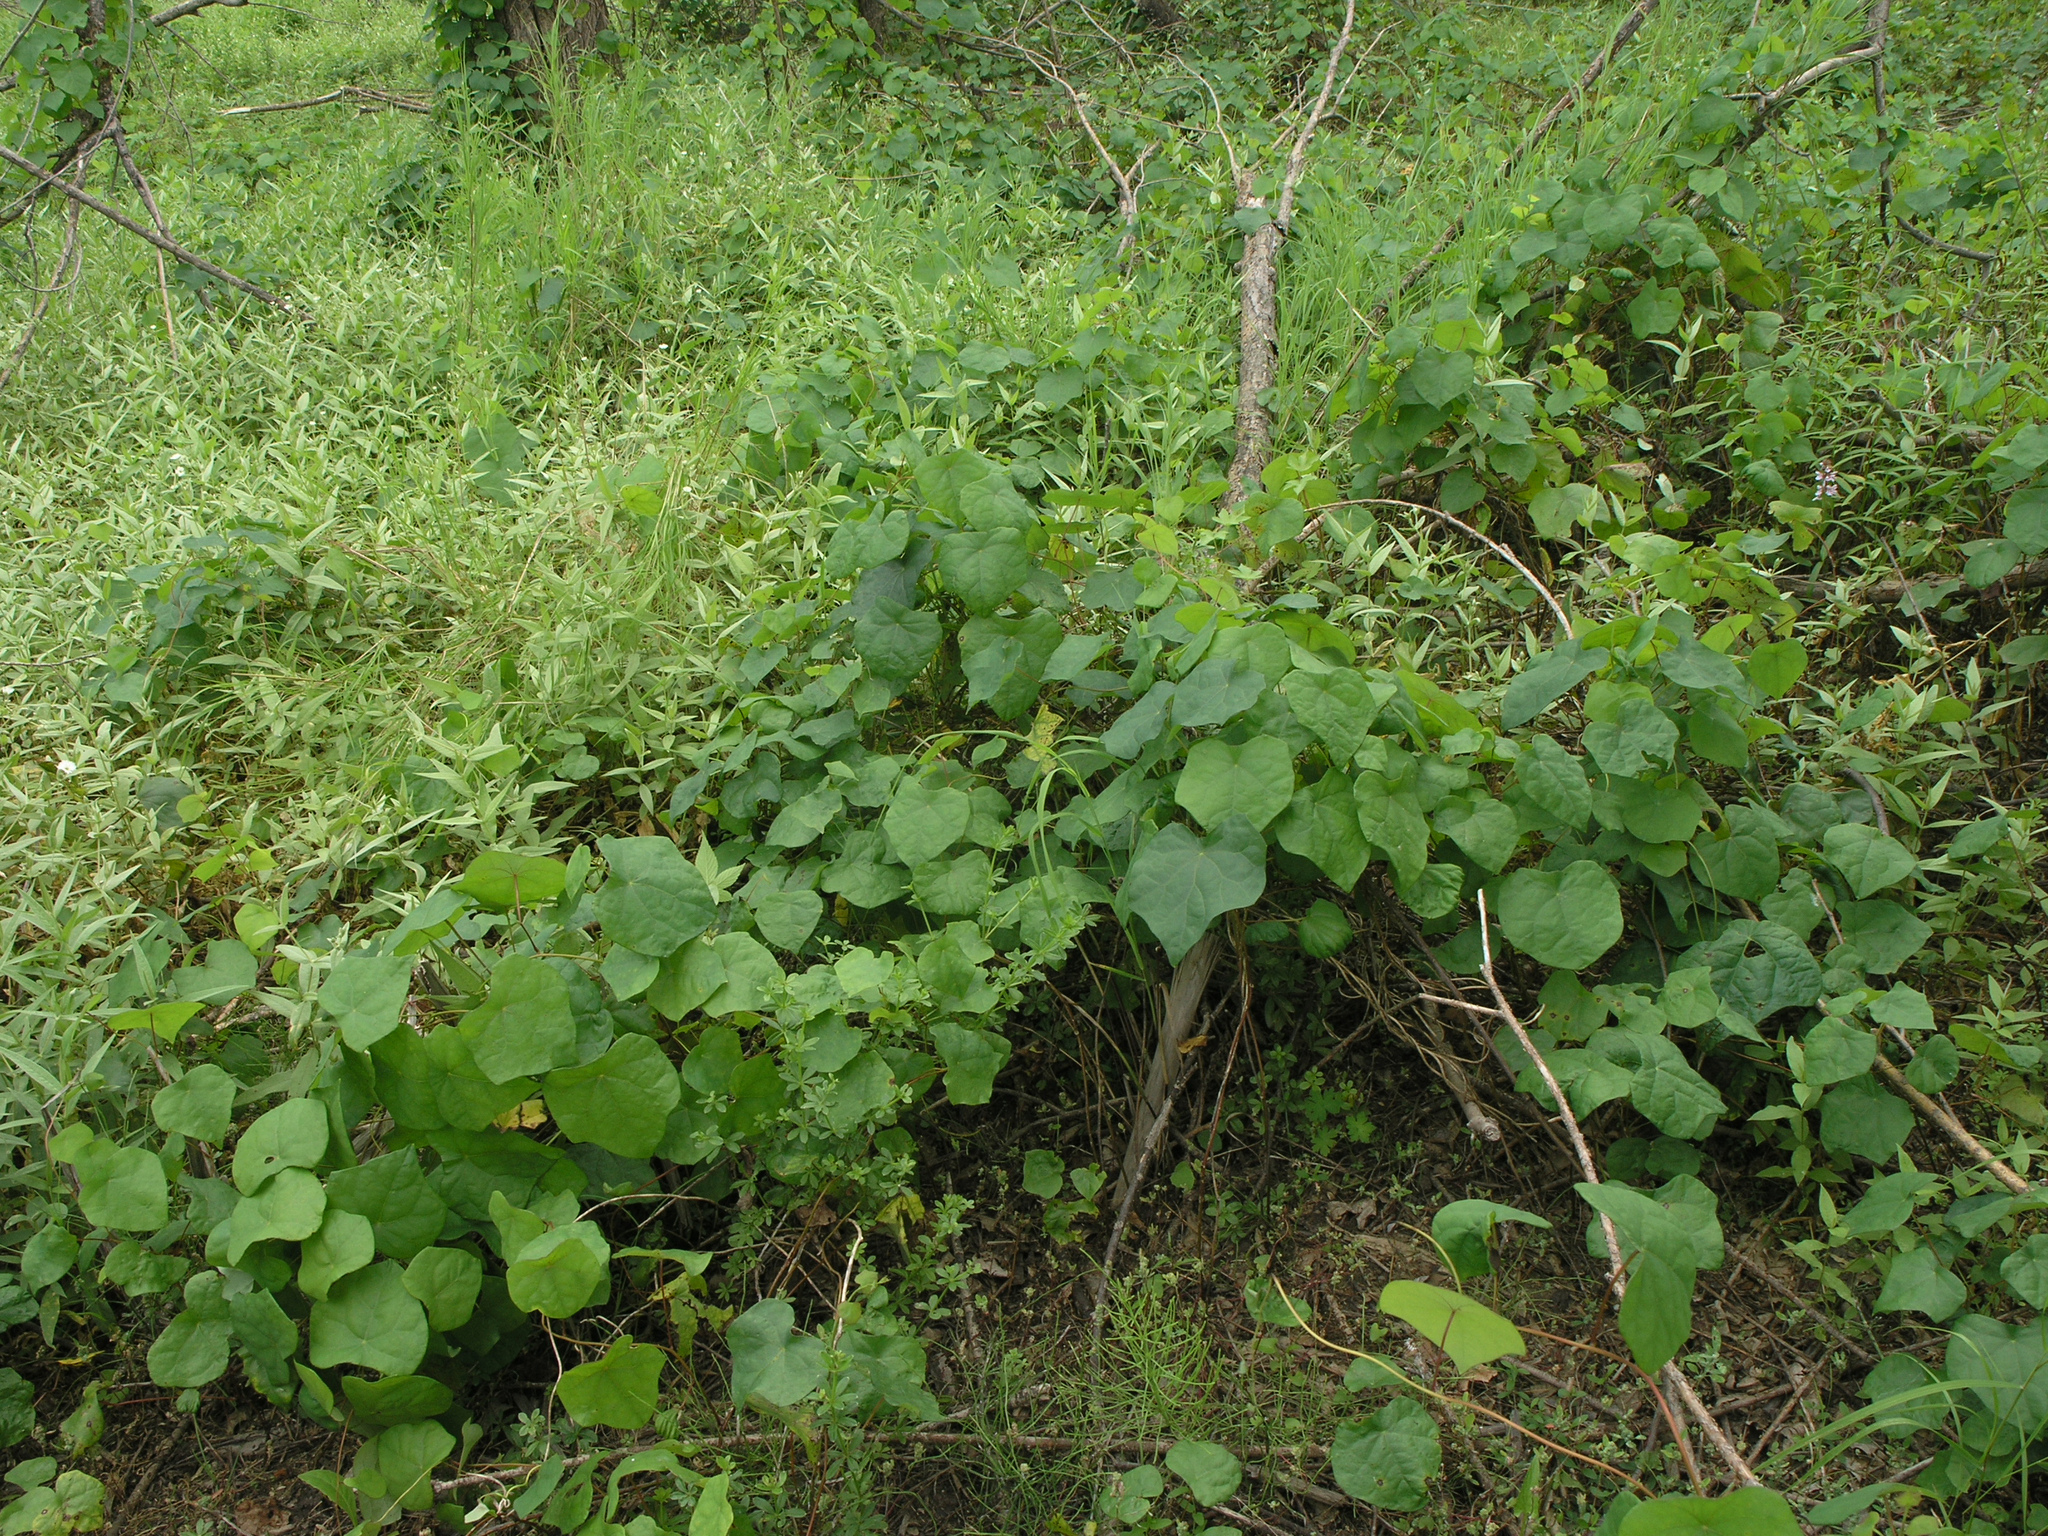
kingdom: Plantae
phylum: Tracheophyta
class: Magnoliopsida
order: Ranunculales
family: Menispermaceae
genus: Menispermum
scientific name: Menispermum dauricum
